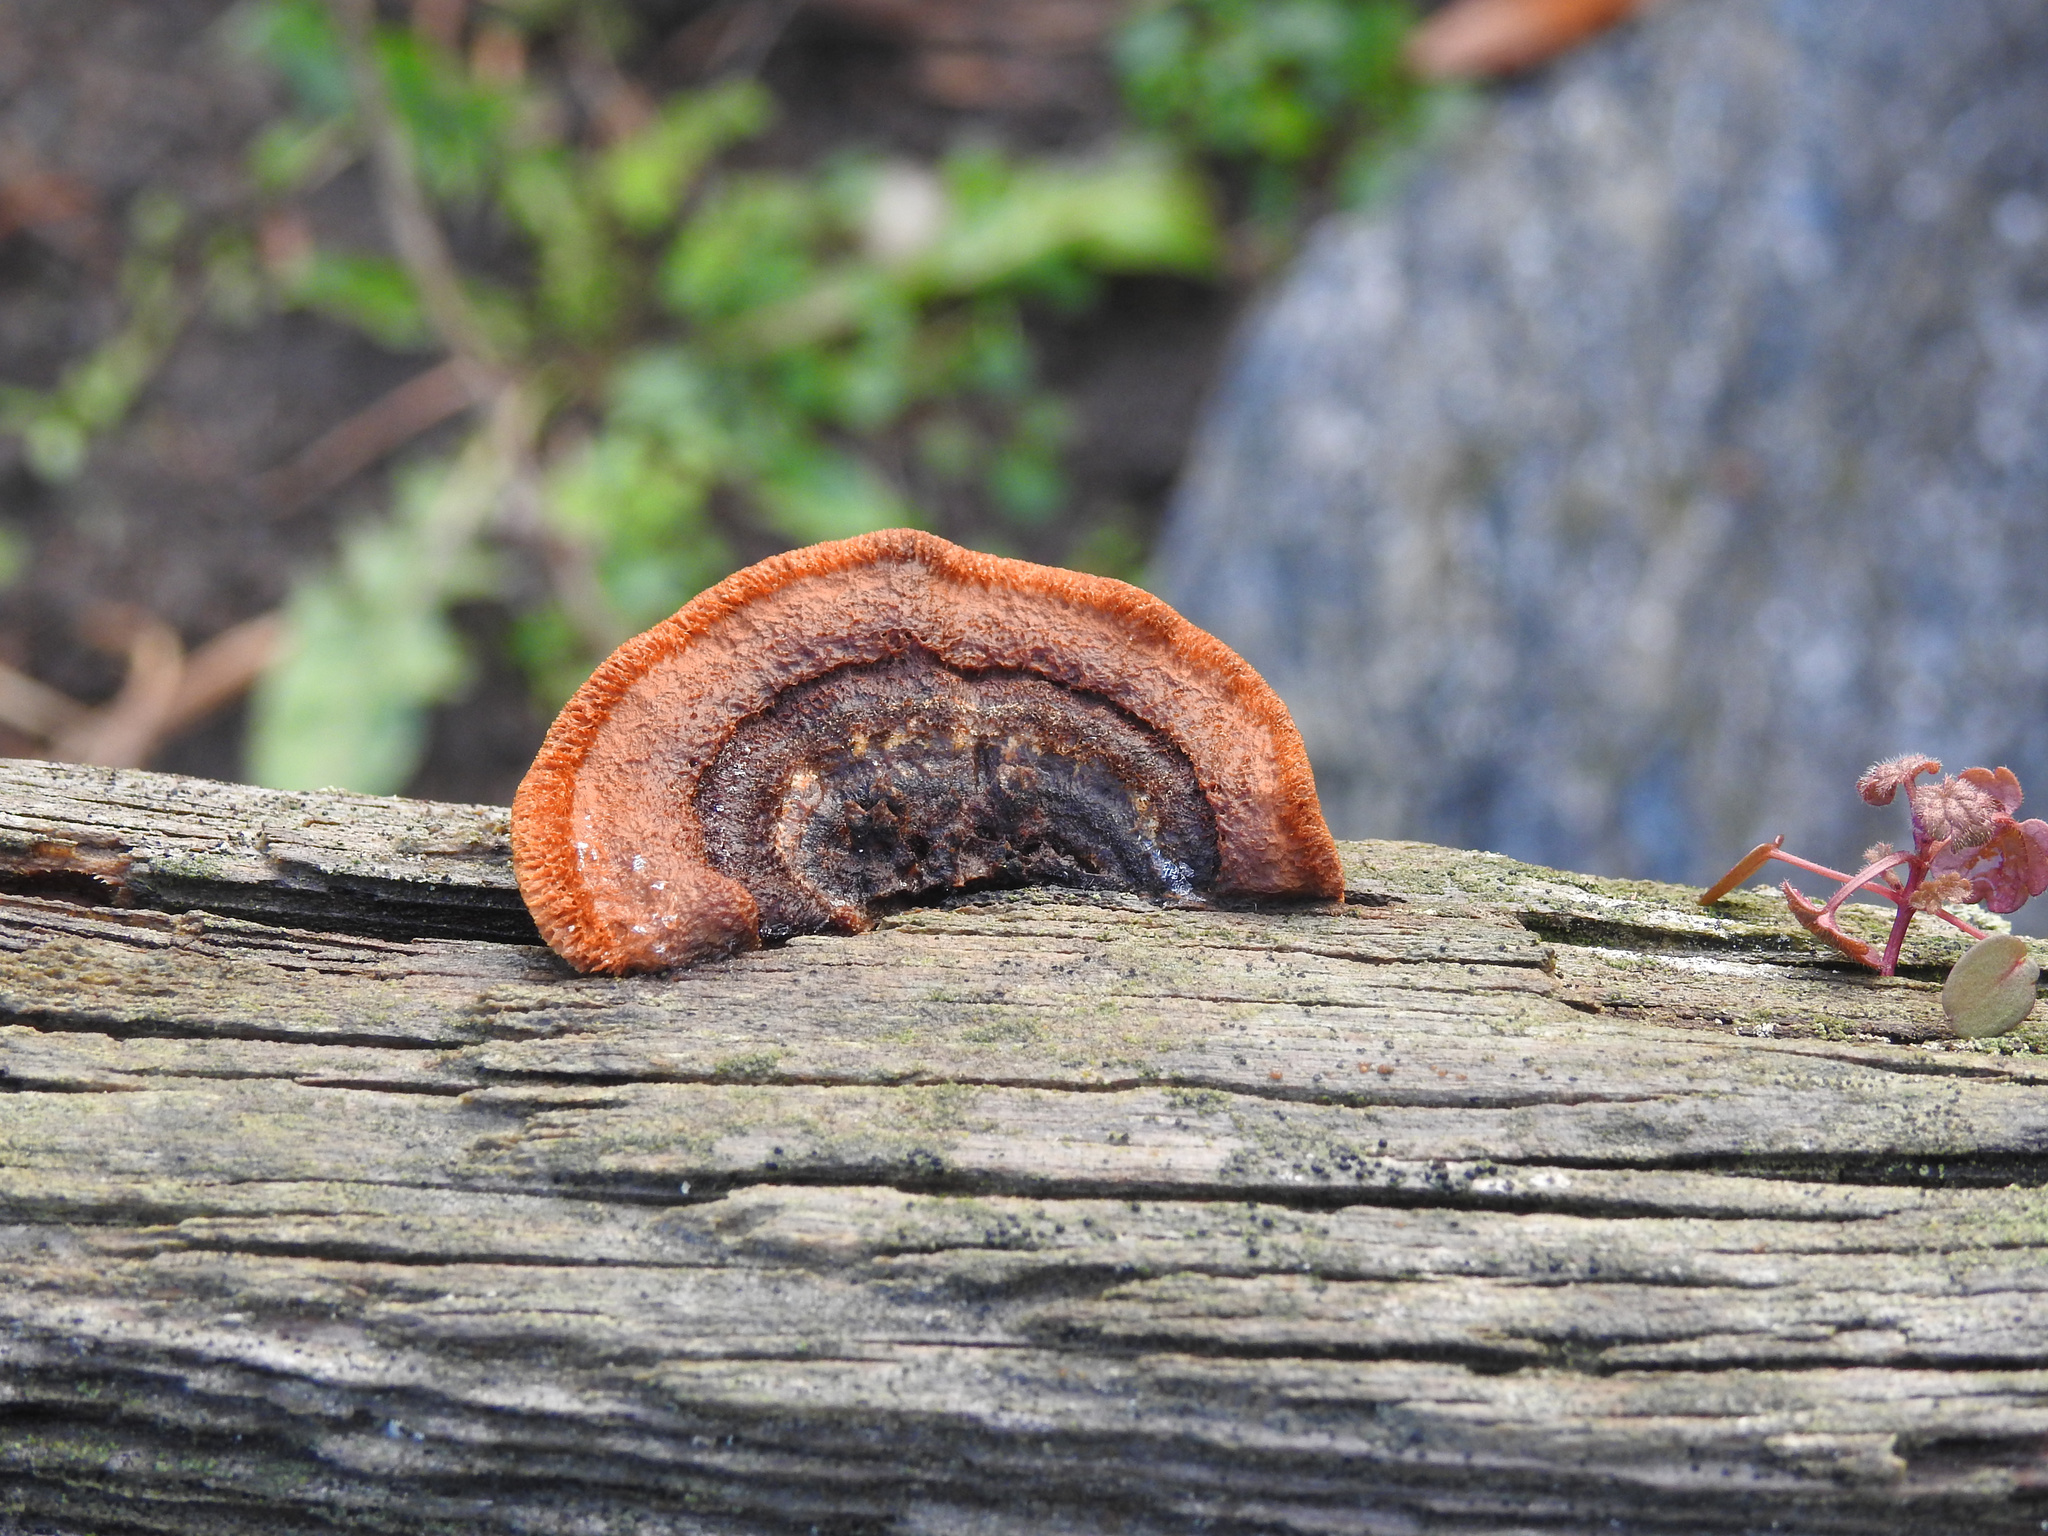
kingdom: Fungi
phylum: Basidiomycota
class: Agaricomycetes
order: Gloeophyllales
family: Gloeophyllaceae
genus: Gloeophyllum
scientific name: Gloeophyllum sepiarium
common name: Conifer mazegill
